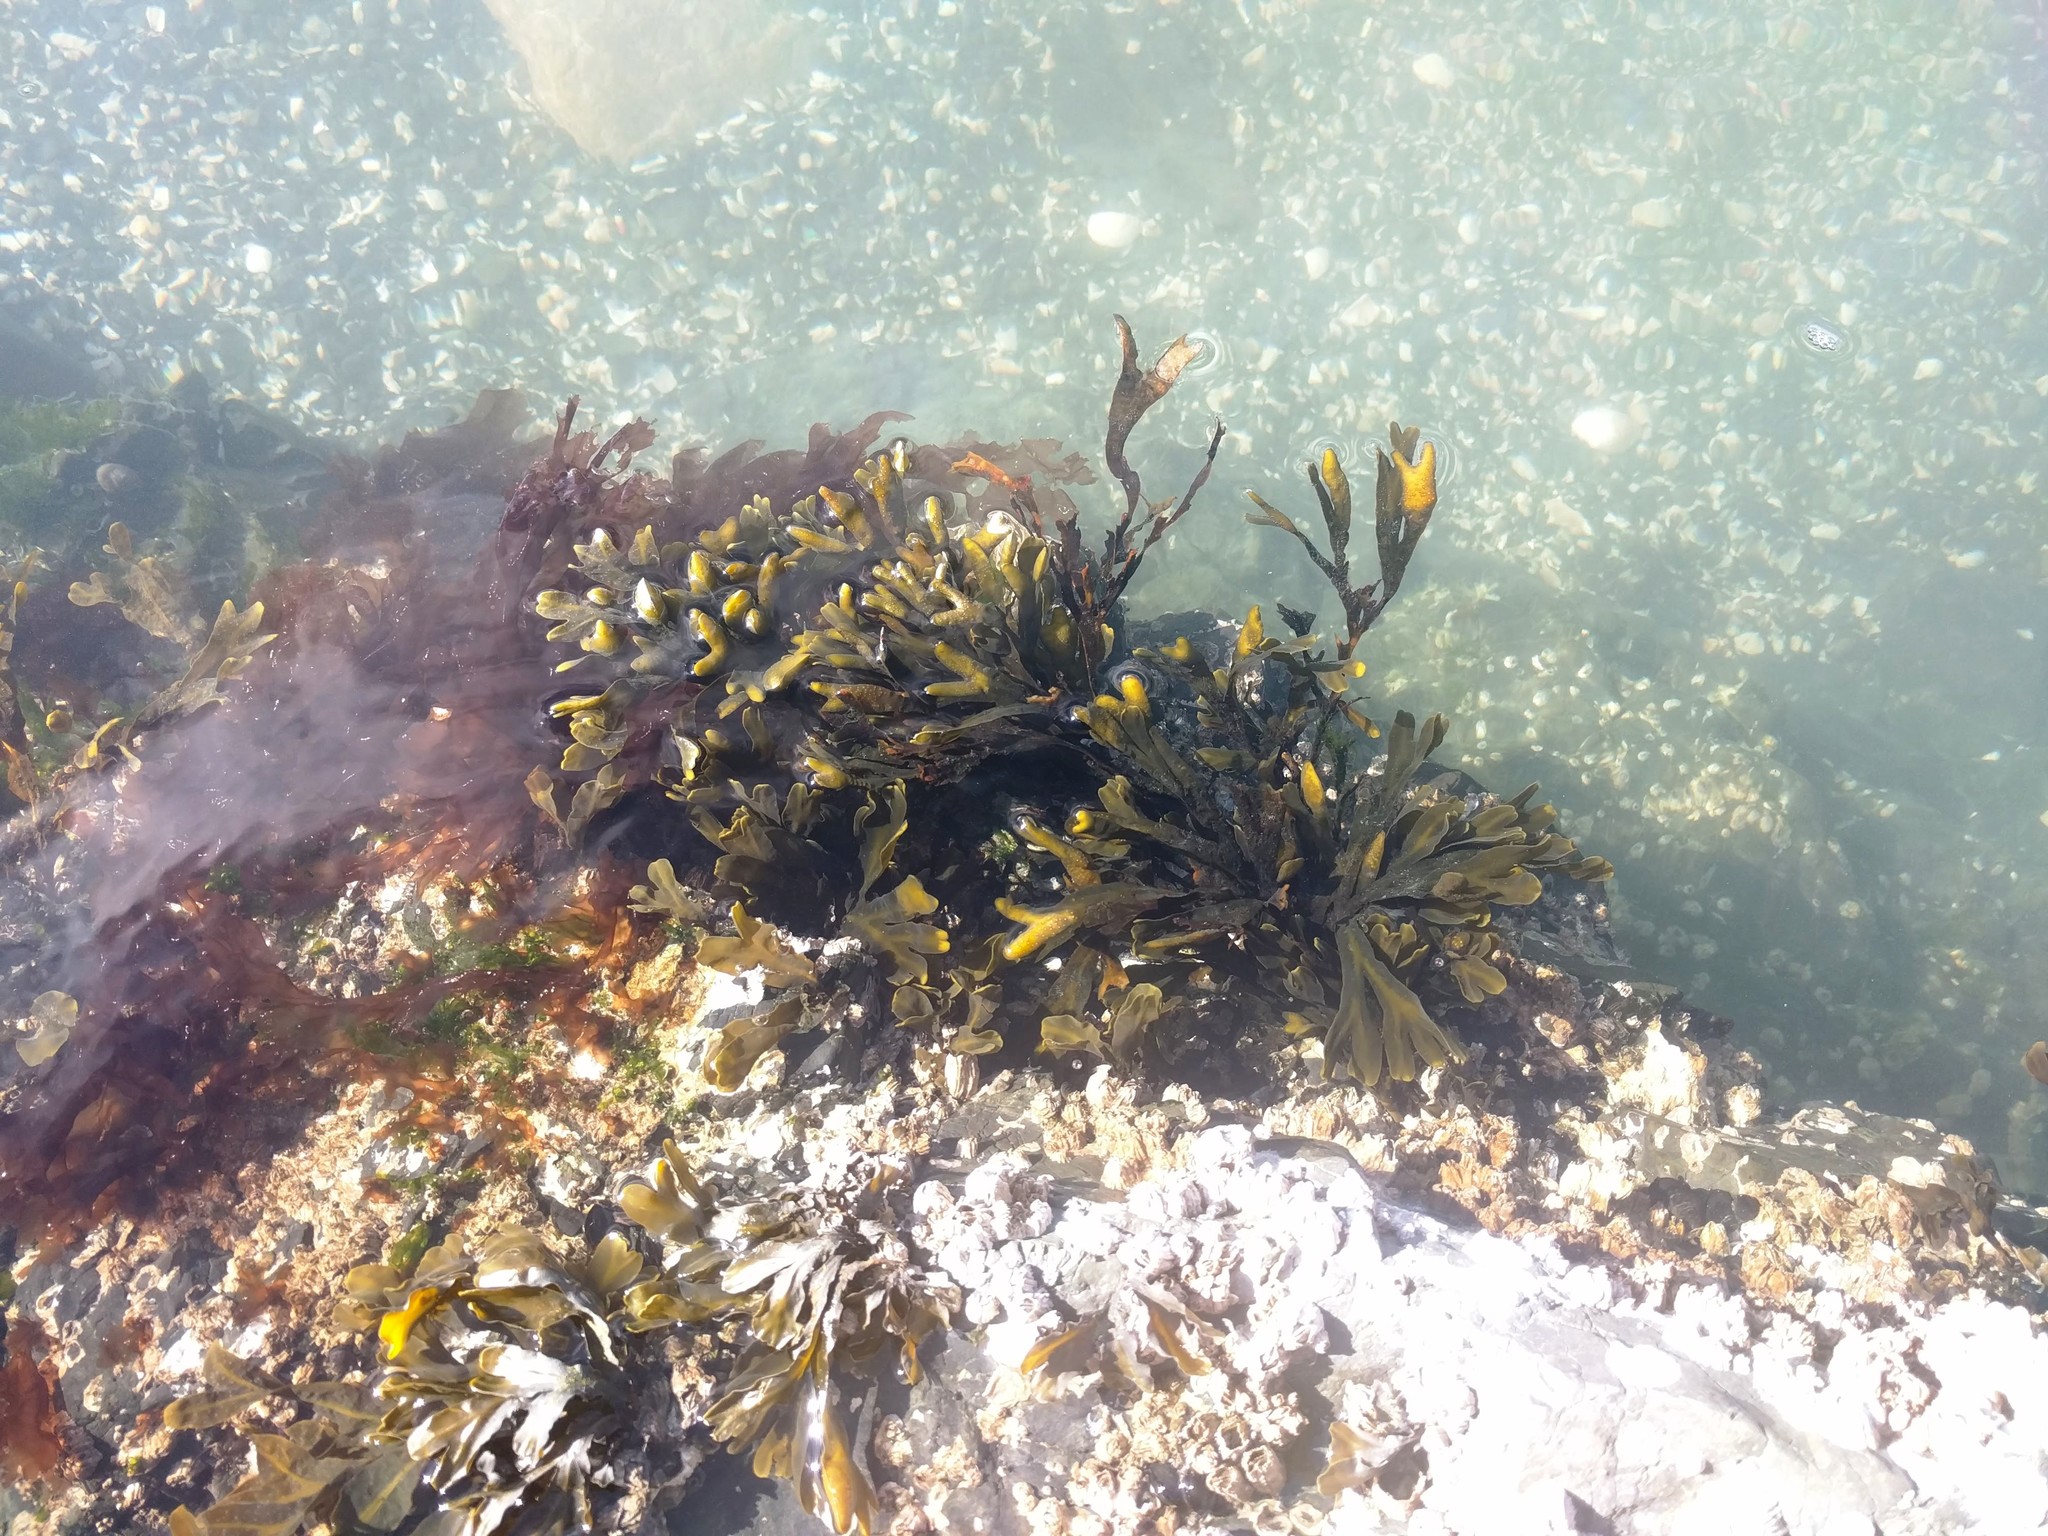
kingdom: Chromista
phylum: Ochrophyta
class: Phaeophyceae
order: Fucales
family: Fucaceae
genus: Fucus
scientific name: Fucus distichus
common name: Rockweed
